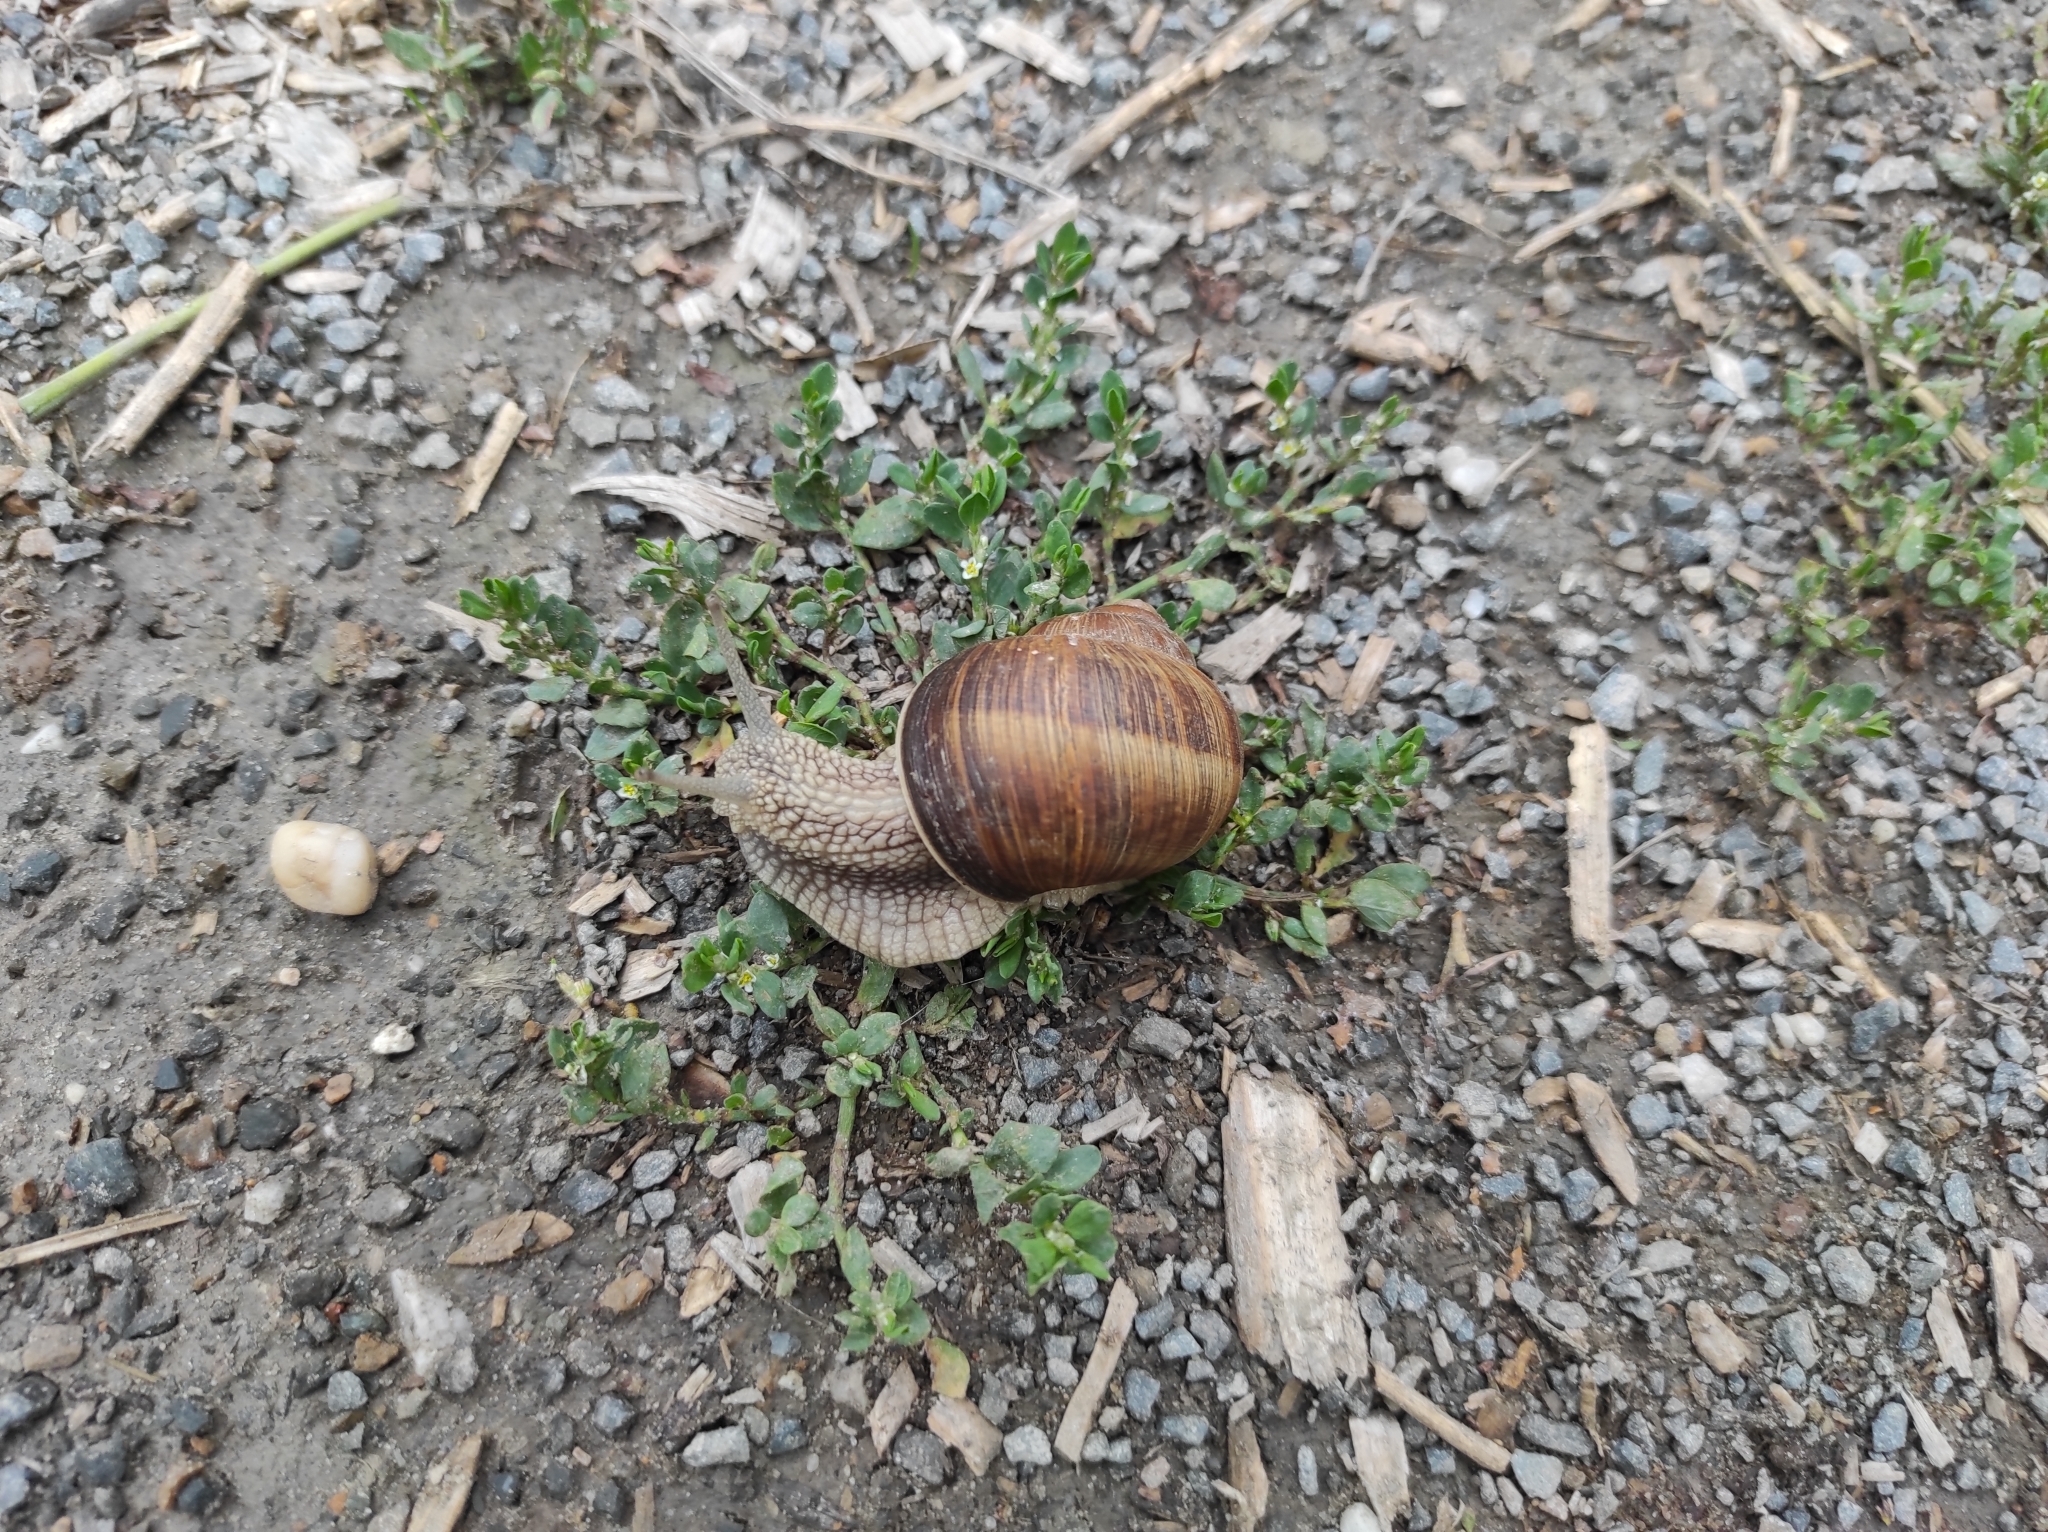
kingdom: Animalia
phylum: Mollusca
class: Gastropoda
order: Stylommatophora
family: Helicidae
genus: Helix
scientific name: Helix pomatia
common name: Roman snail
